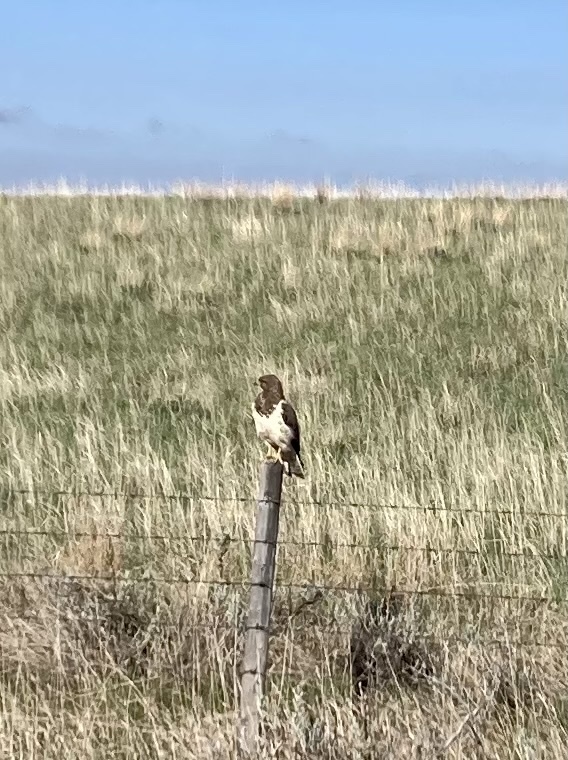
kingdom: Animalia
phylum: Chordata
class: Aves
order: Accipitriformes
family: Accipitridae
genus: Buteo
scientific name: Buteo swainsoni
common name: Swainson's hawk
